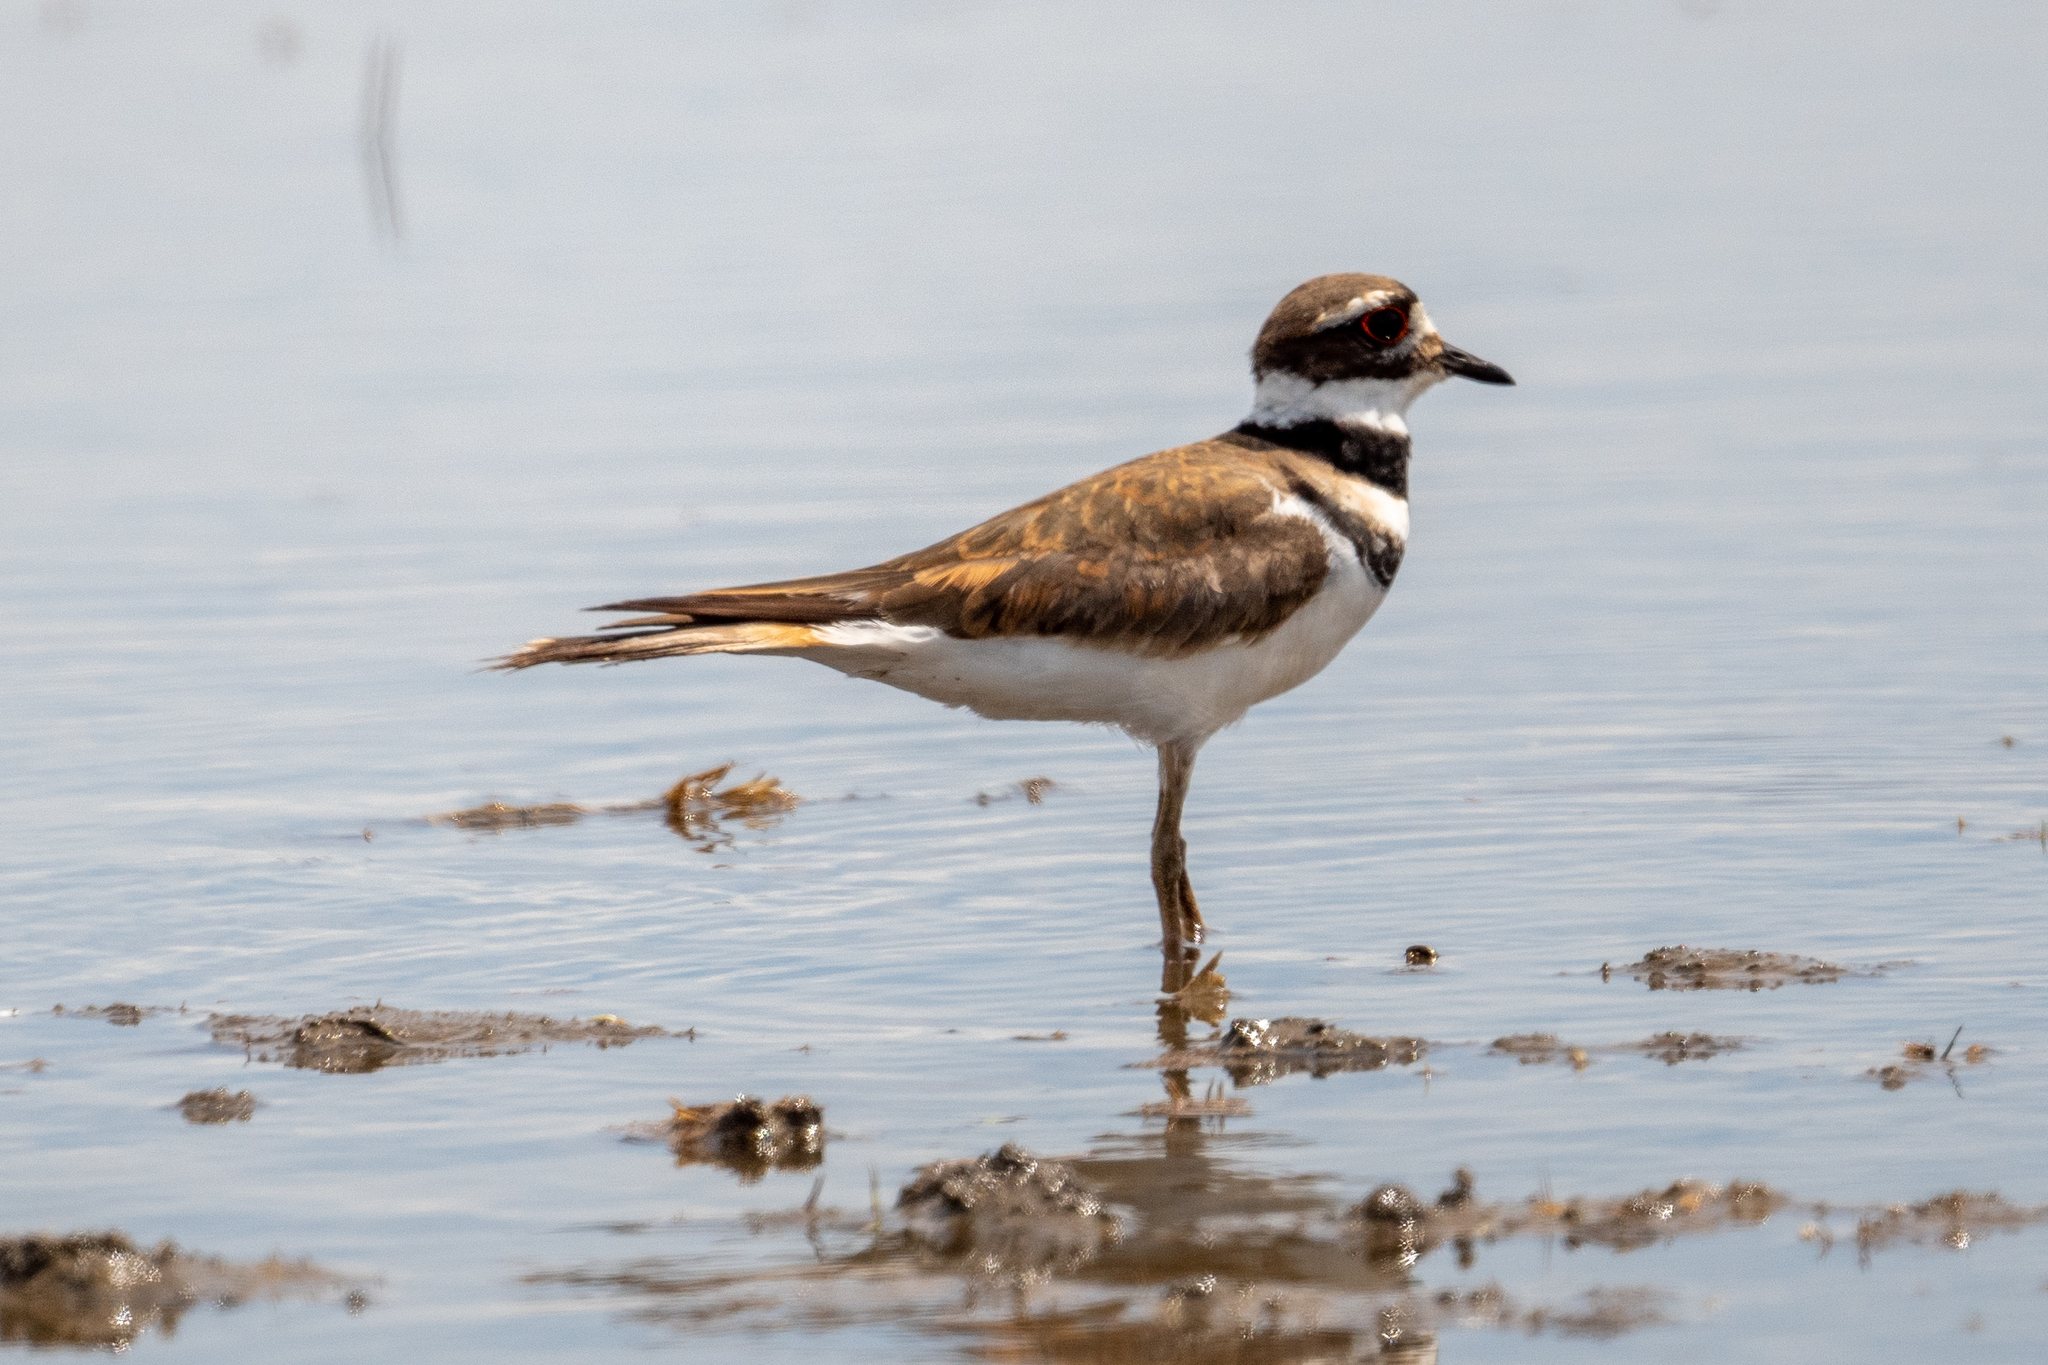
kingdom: Animalia
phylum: Chordata
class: Aves
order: Charadriiformes
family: Charadriidae
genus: Charadrius
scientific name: Charadrius vociferus
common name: Killdeer
